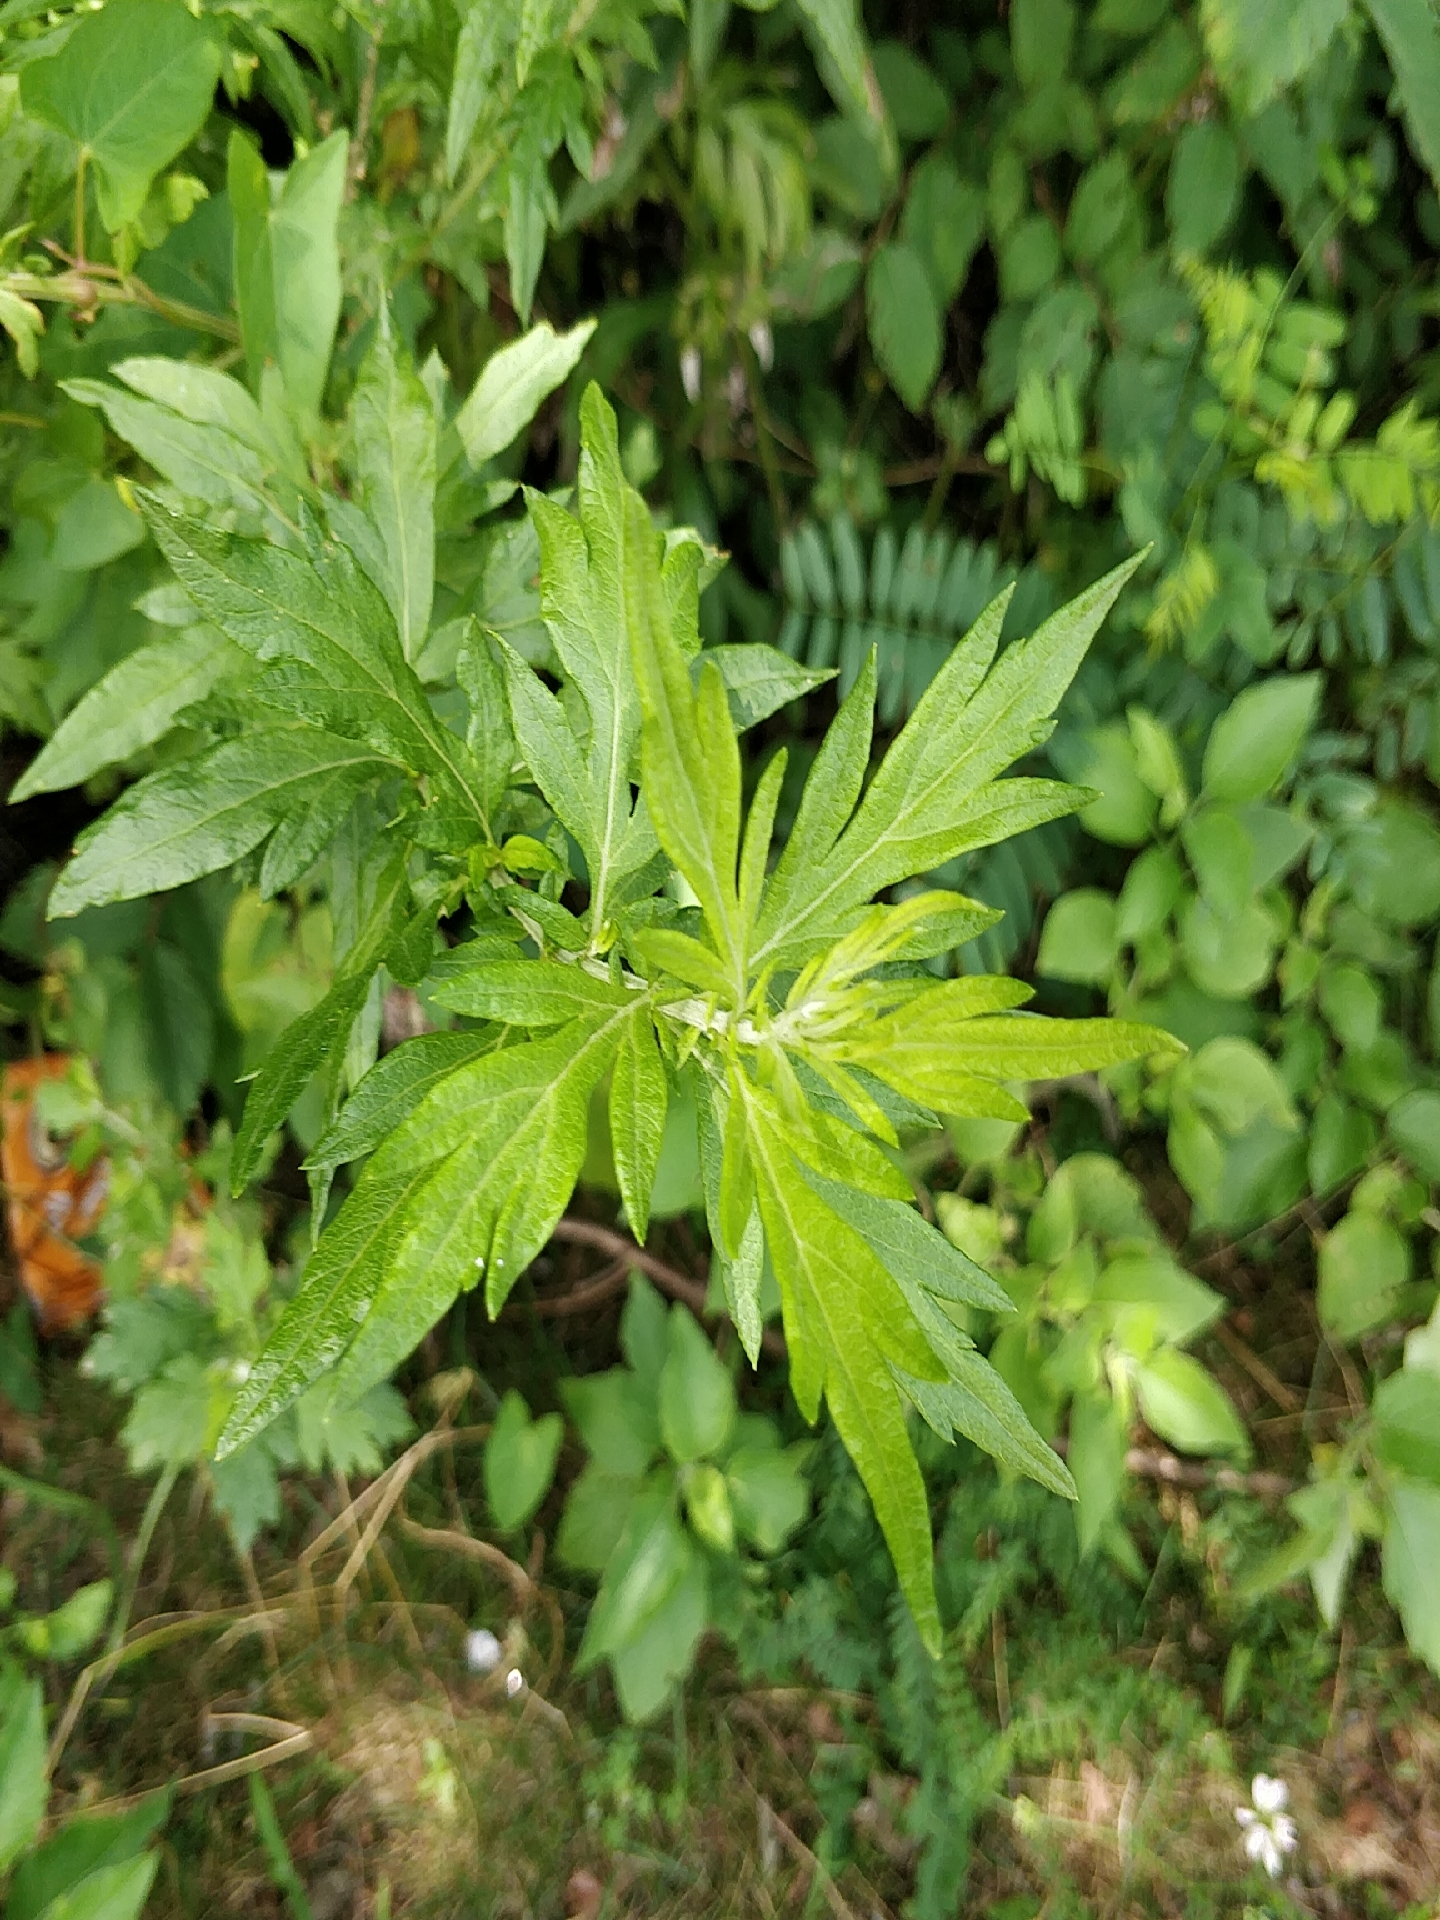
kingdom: Plantae
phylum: Tracheophyta
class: Magnoliopsida
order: Asterales
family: Asteraceae
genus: Artemisia
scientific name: Artemisia vulgaris
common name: Mugwort
